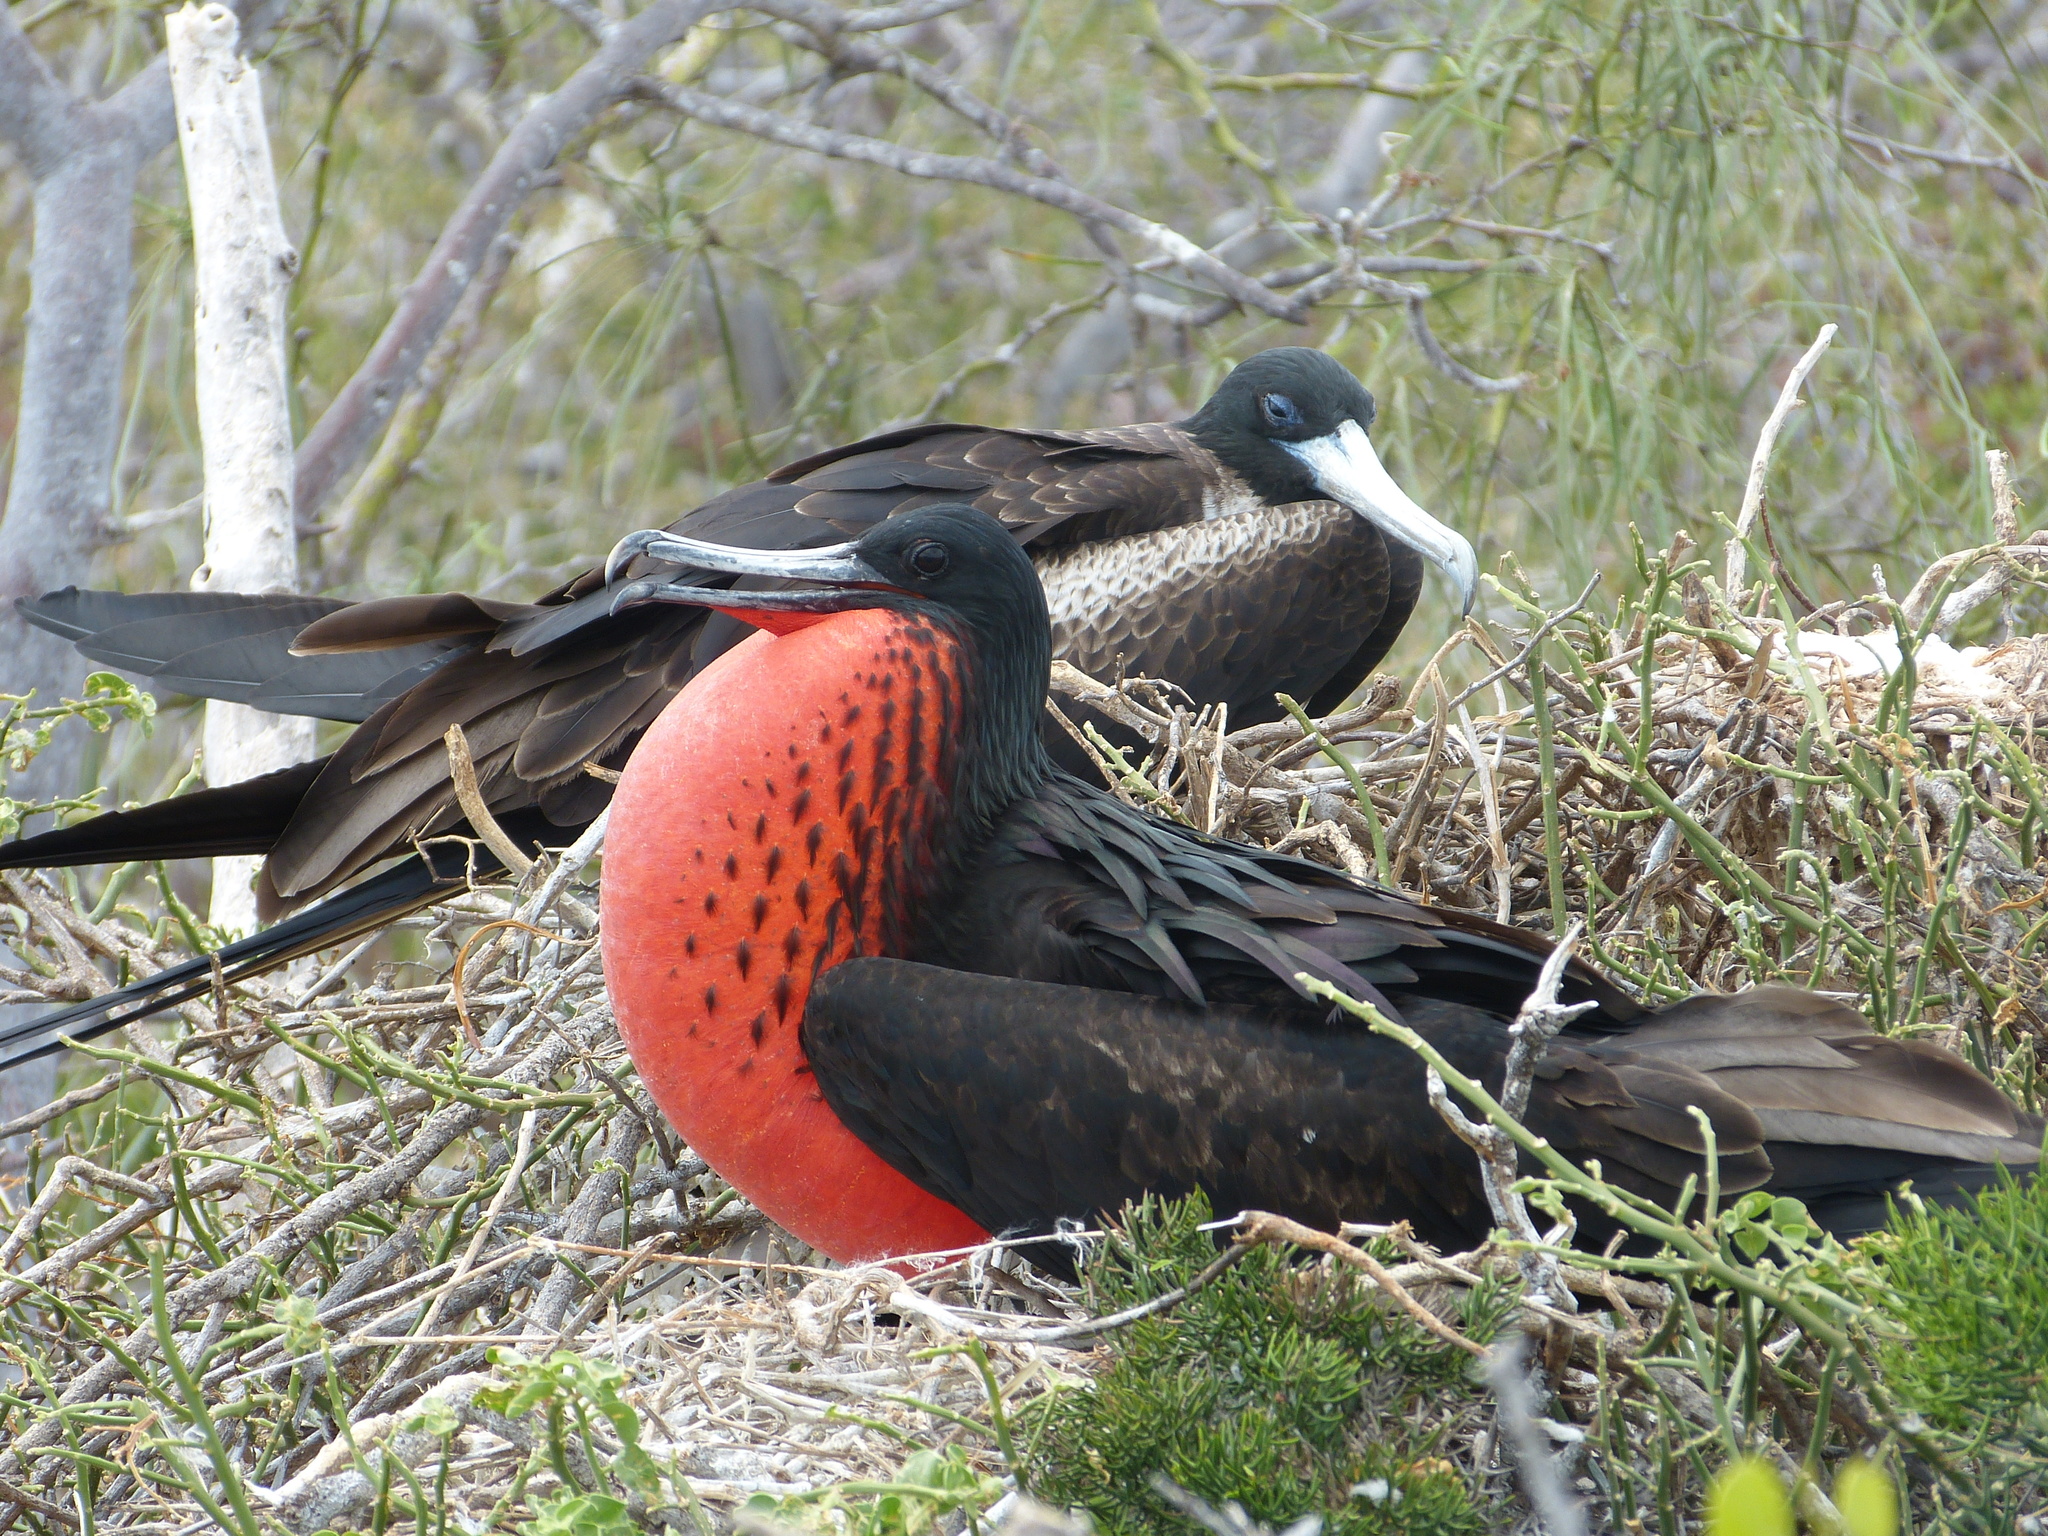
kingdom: Animalia
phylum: Chordata
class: Aves
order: Suliformes
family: Fregatidae
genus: Fregata
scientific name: Fregata magnificens
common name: Magnificent frigatebird
